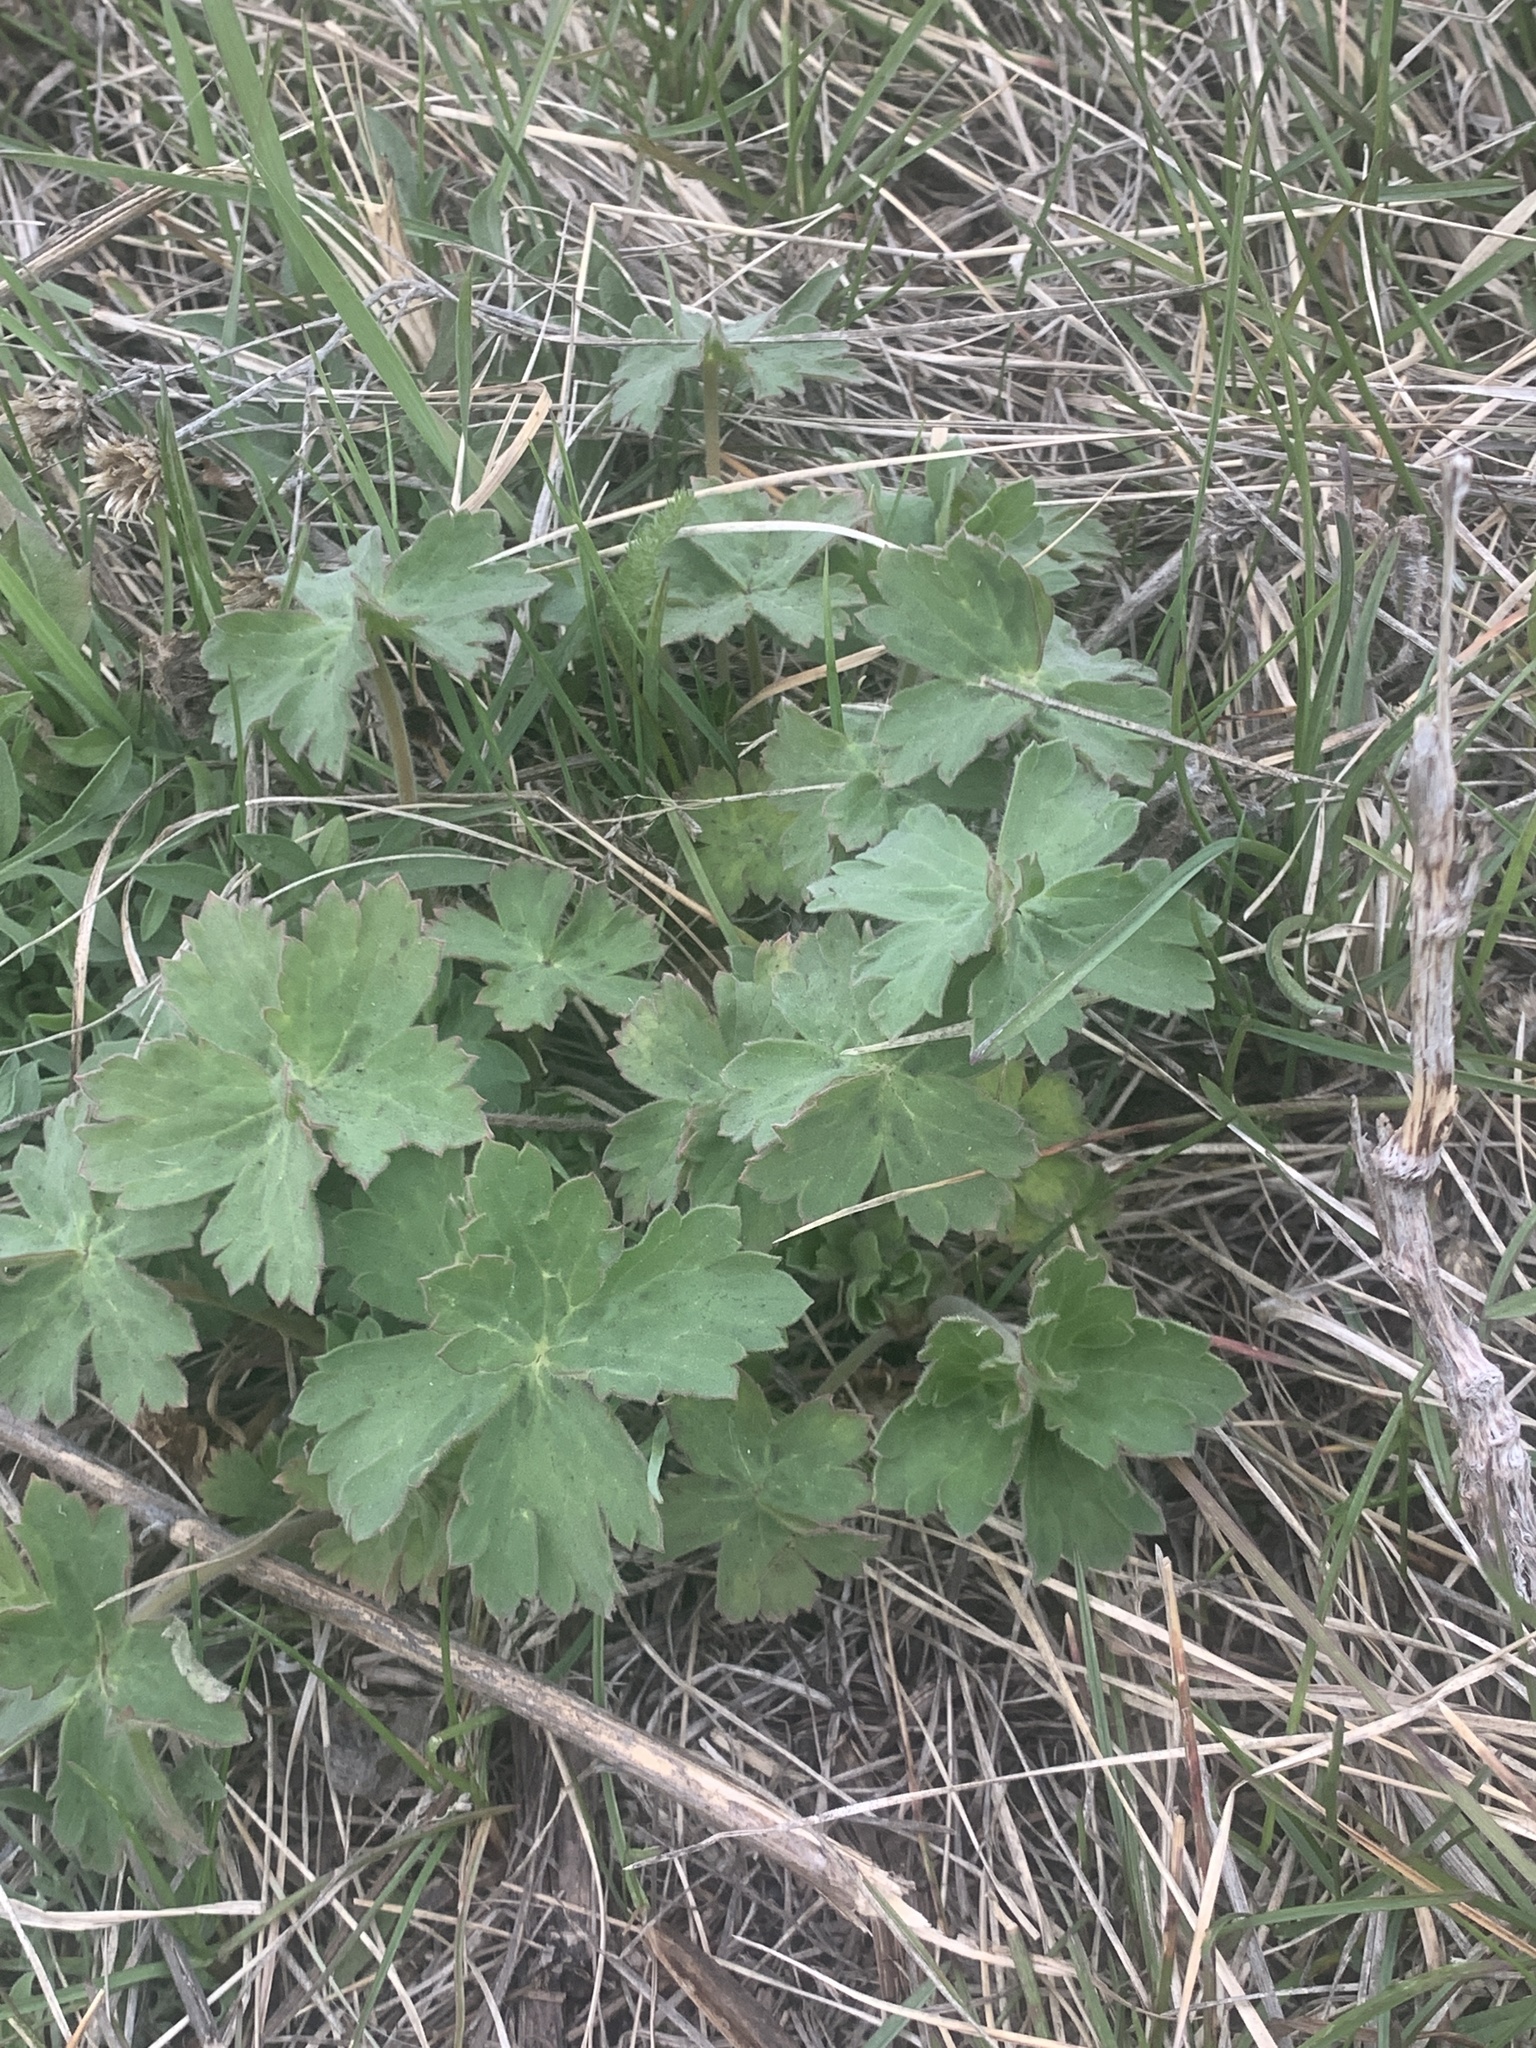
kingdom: Plantae
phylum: Tracheophyta
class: Magnoliopsida
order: Geraniales
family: Geraniaceae
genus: Geranium
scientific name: Geranium viscosissimum
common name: Purple geranium
